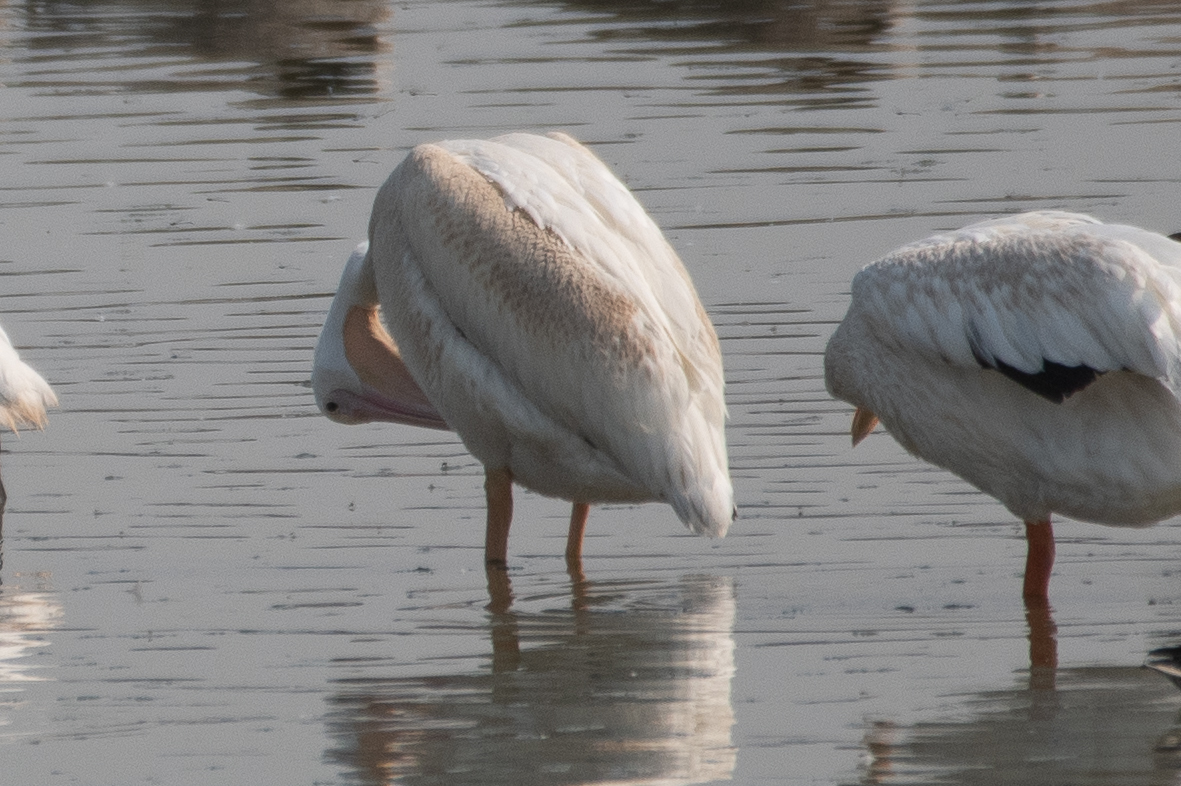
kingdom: Animalia
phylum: Chordata
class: Aves
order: Pelecaniformes
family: Pelecanidae
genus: Pelecanus
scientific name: Pelecanus erythrorhynchos
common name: American white pelican
